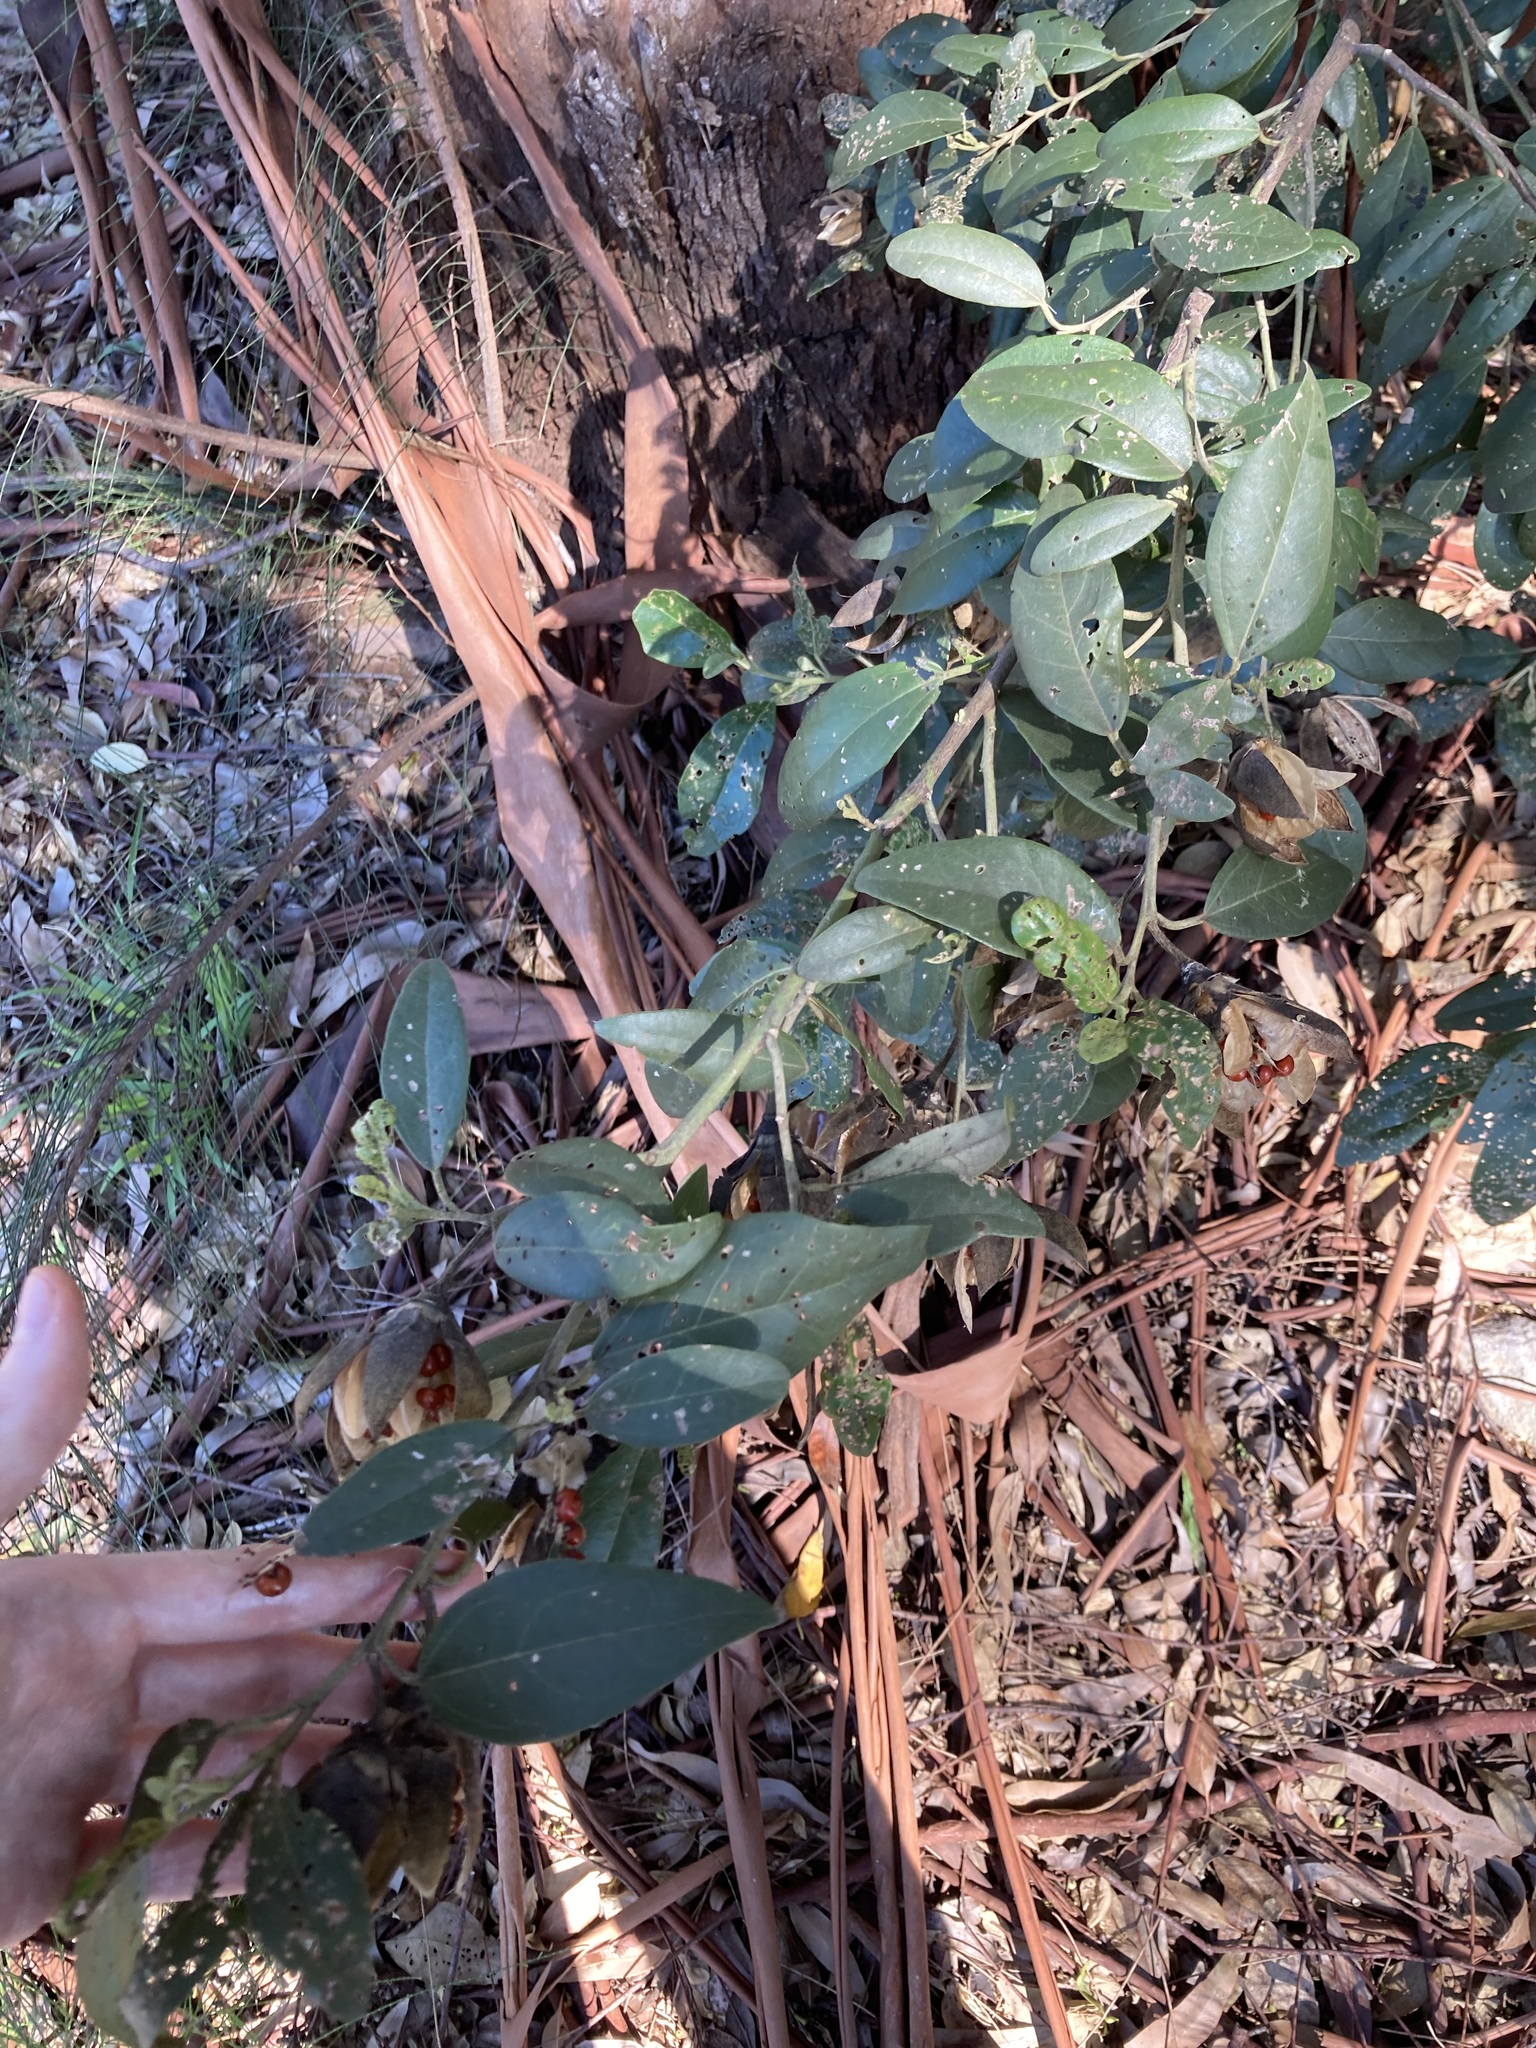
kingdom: Plantae
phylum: Tracheophyta
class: Magnoliopsida
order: Malvales
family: Malvaceae
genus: Lagunaria
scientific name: Lagunaria patersonia
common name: Cow itch tree
